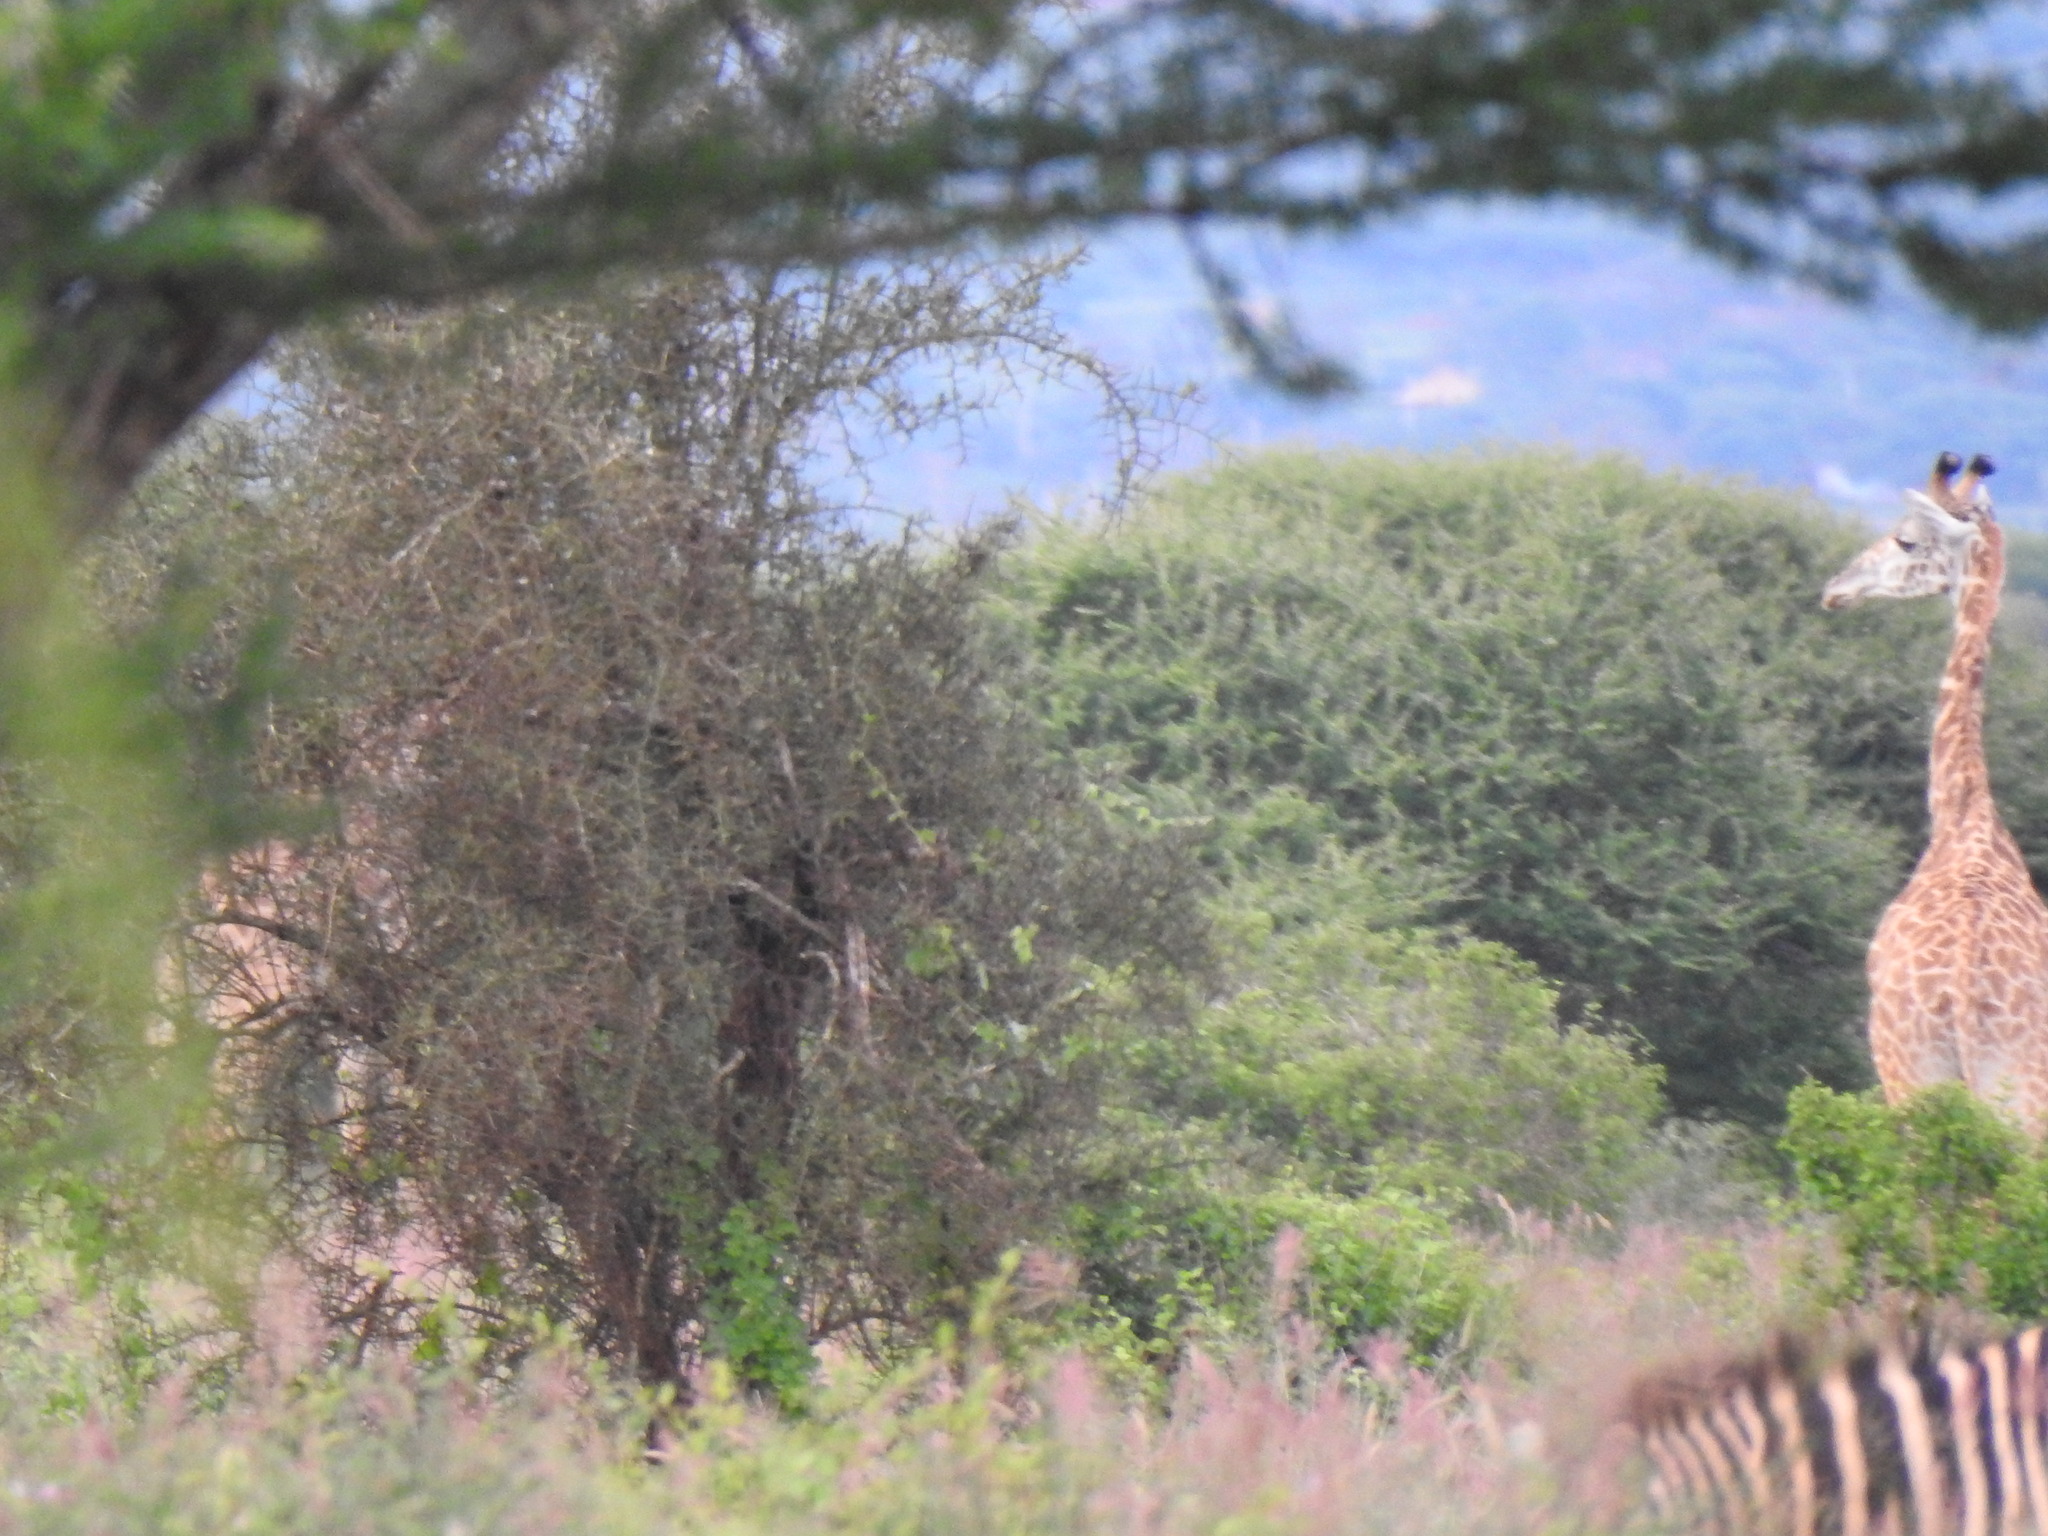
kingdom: Animalia
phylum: Chordata
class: Mammalia
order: Artiodactyla
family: Giraffidae
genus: Giraffa
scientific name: Giraffa tippelskirchi
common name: Masai giraffe
